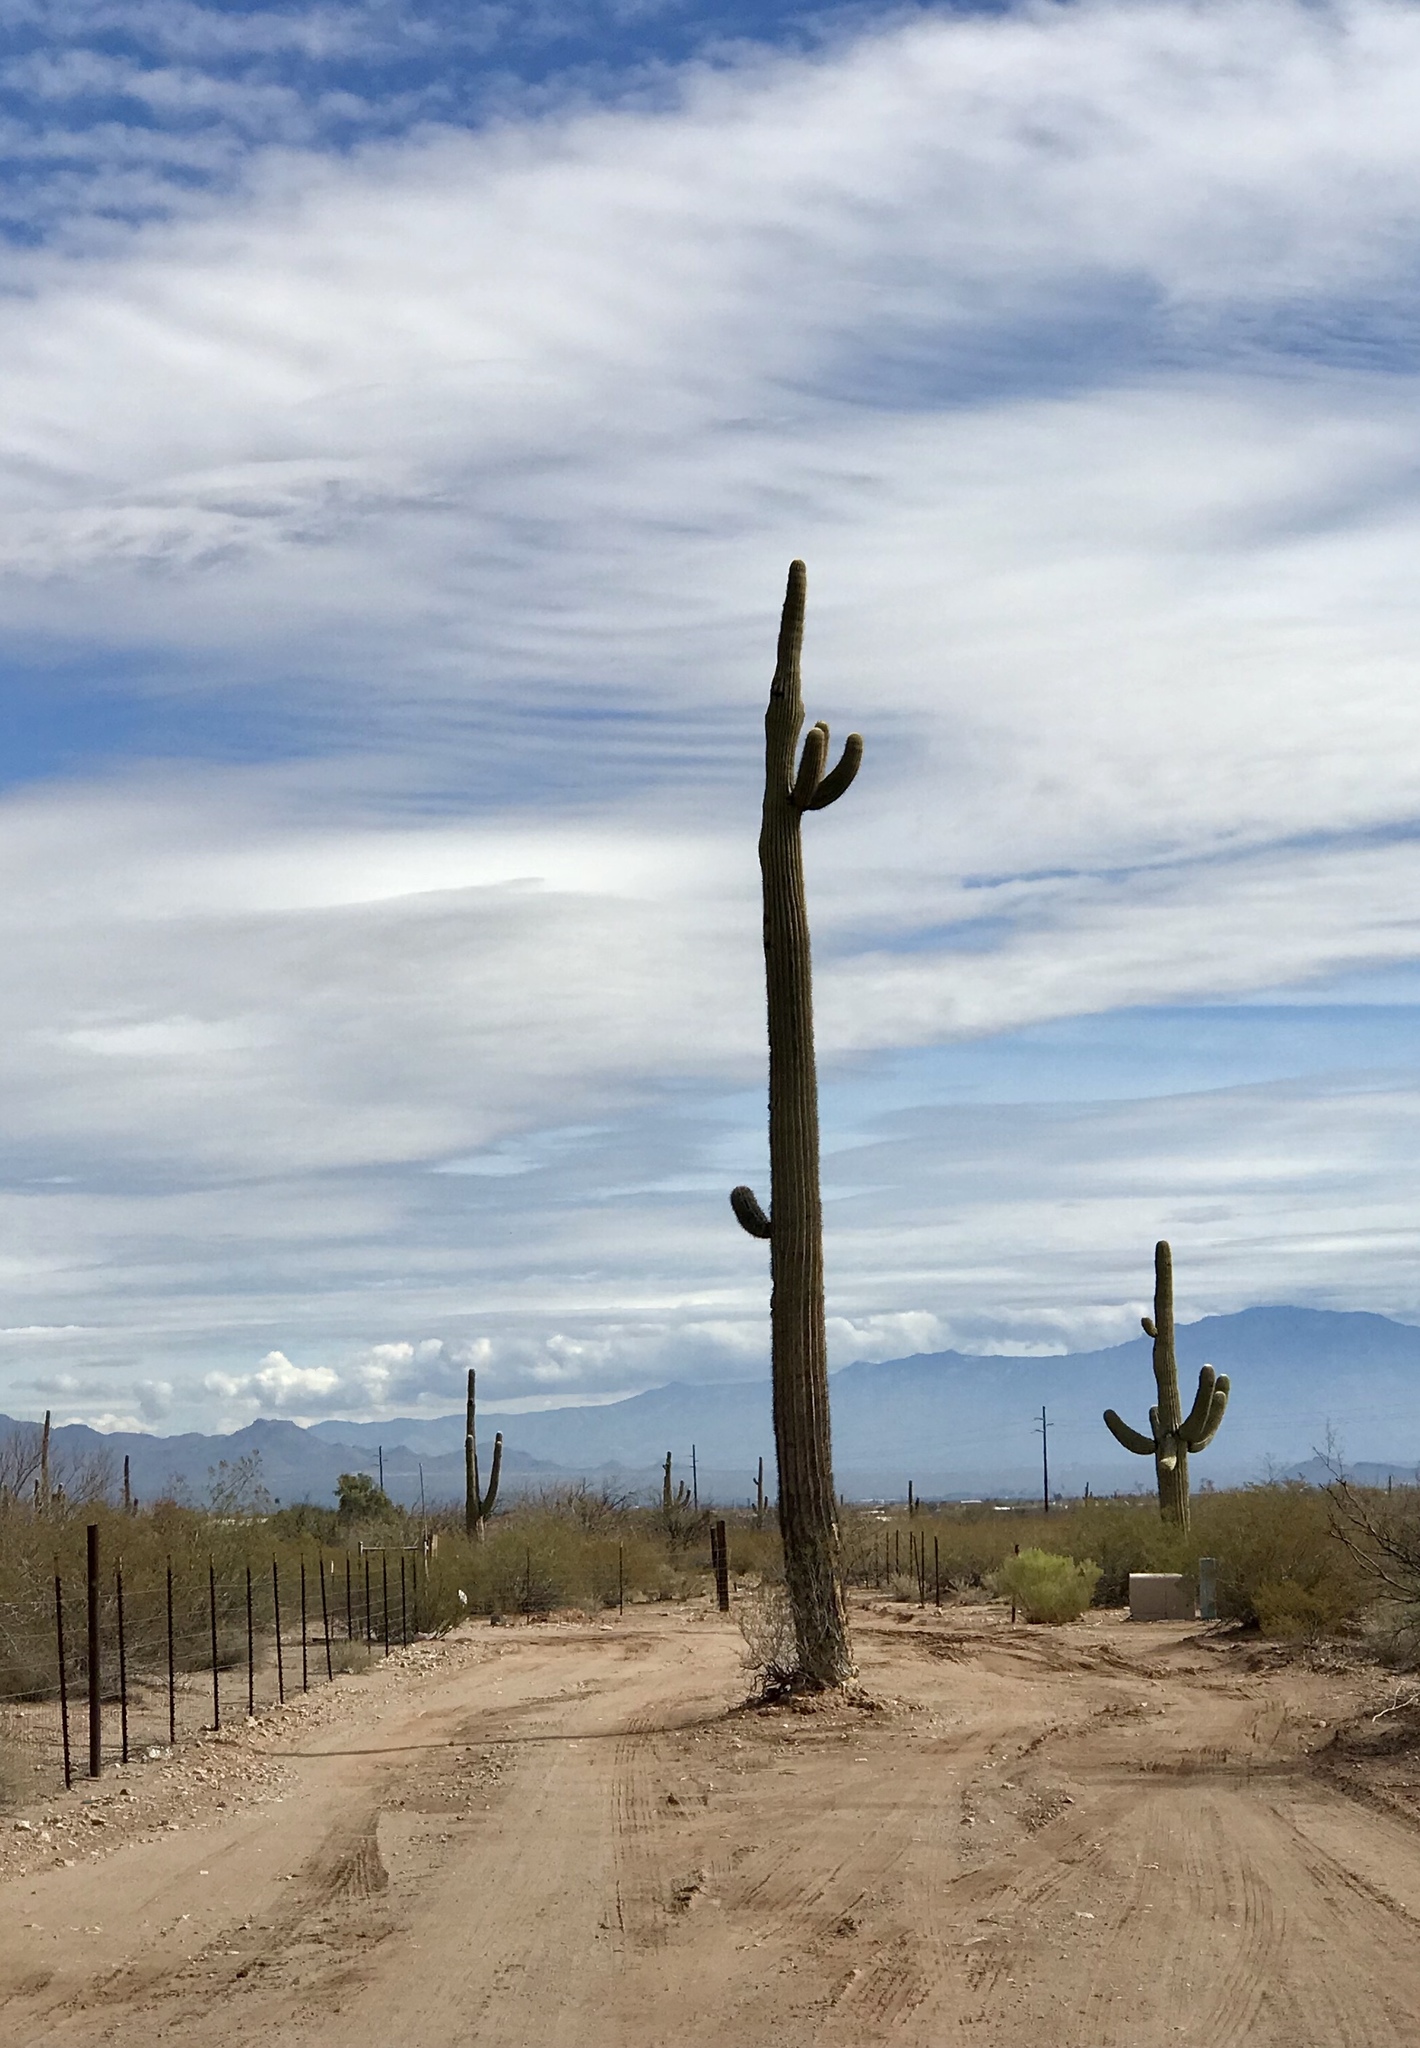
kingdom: Plantae
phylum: Tracheophyta
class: Magnoliopsida
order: Caryophyllales
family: Cactaceae
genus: Carnegiea
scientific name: Carnegiea gigantea
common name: Saguaro
